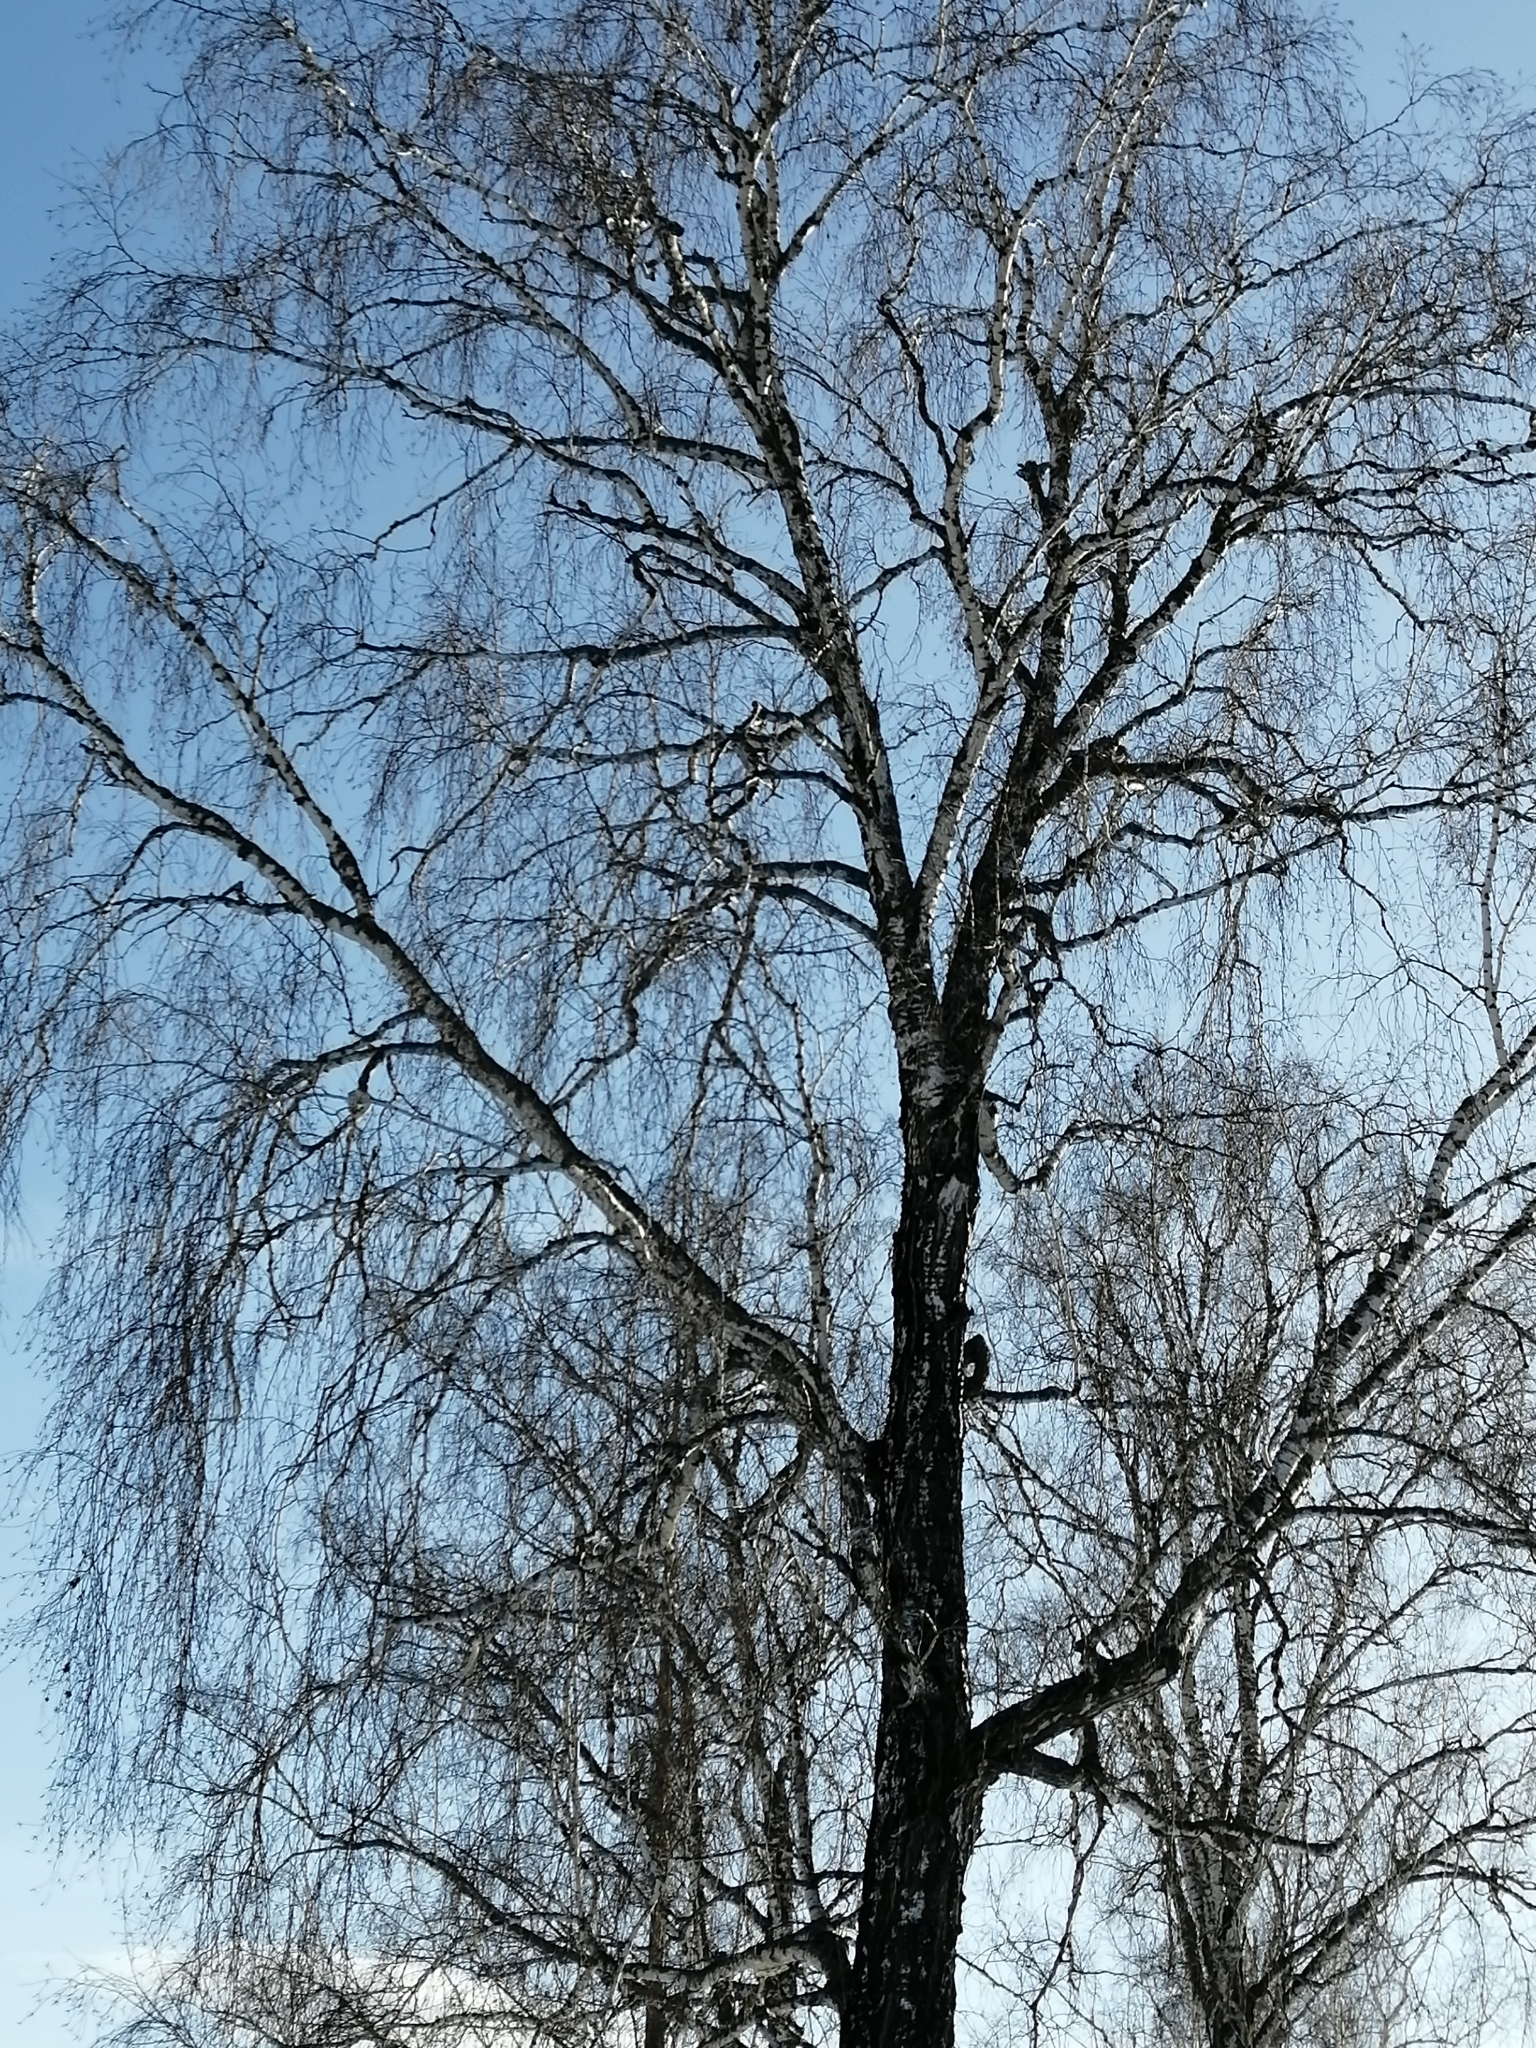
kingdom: Plantae
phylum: Tracheophyta
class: Magnoliopsida
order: Fagales
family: Betulaceae
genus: Betula
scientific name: Betula pendula
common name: Silver birch
